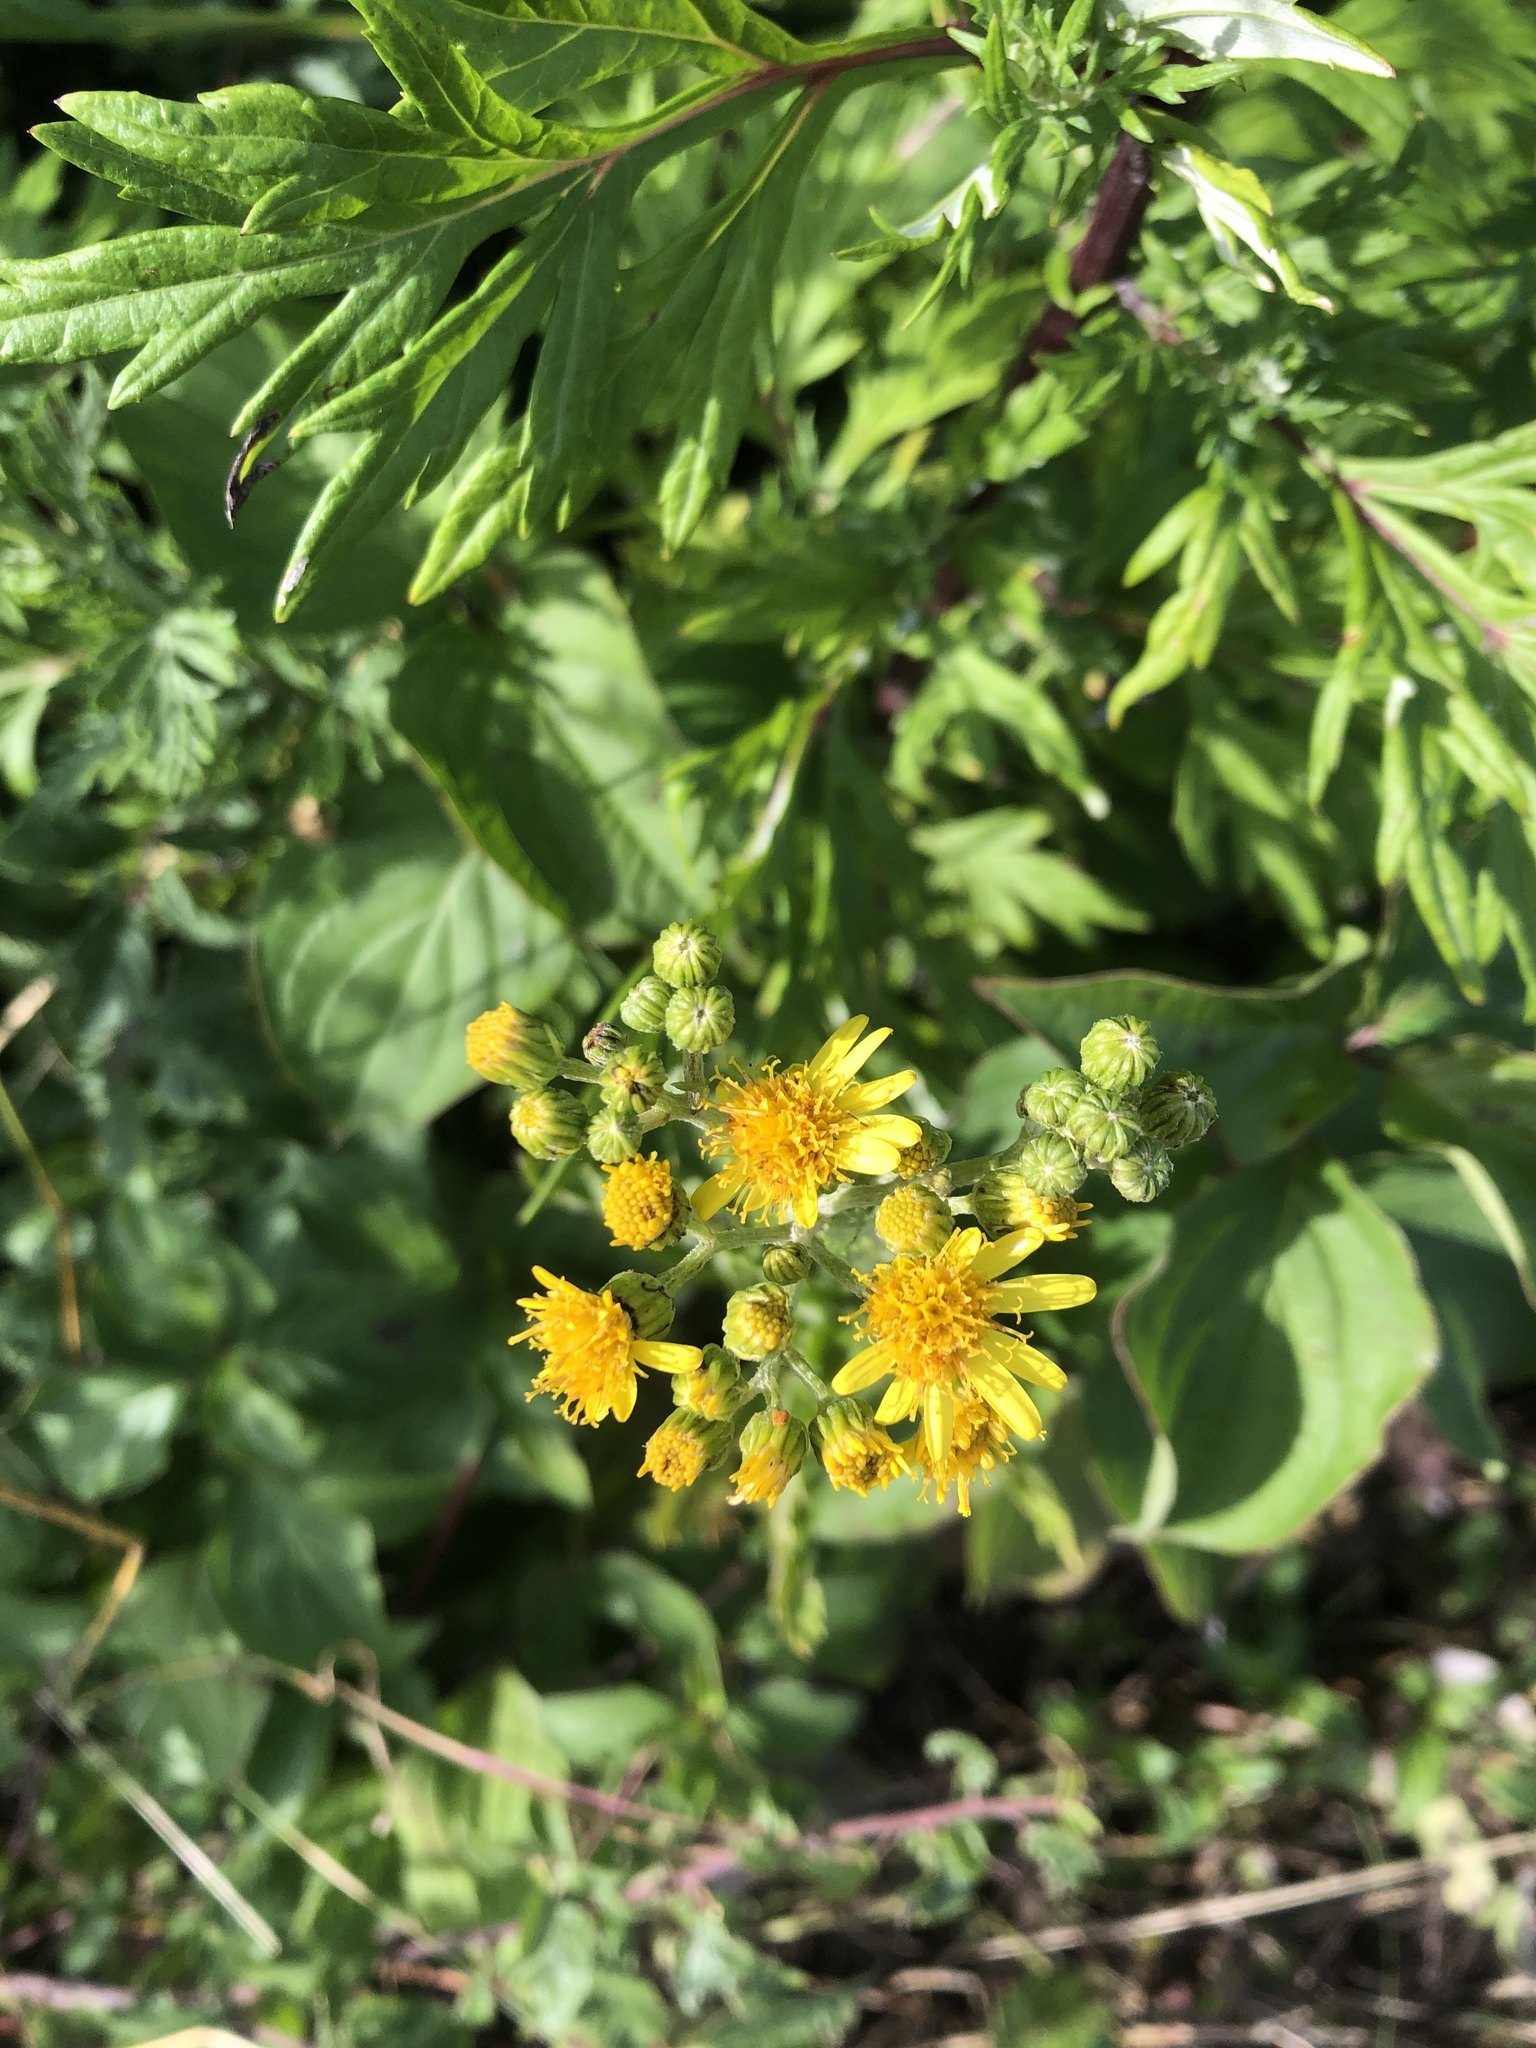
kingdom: Plantae
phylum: Tracheophyta
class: Magnoliopsida
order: Asterales
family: Asteraceae
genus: Jacobaea
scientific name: Jacobaea vulgaris
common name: Stinking willie
